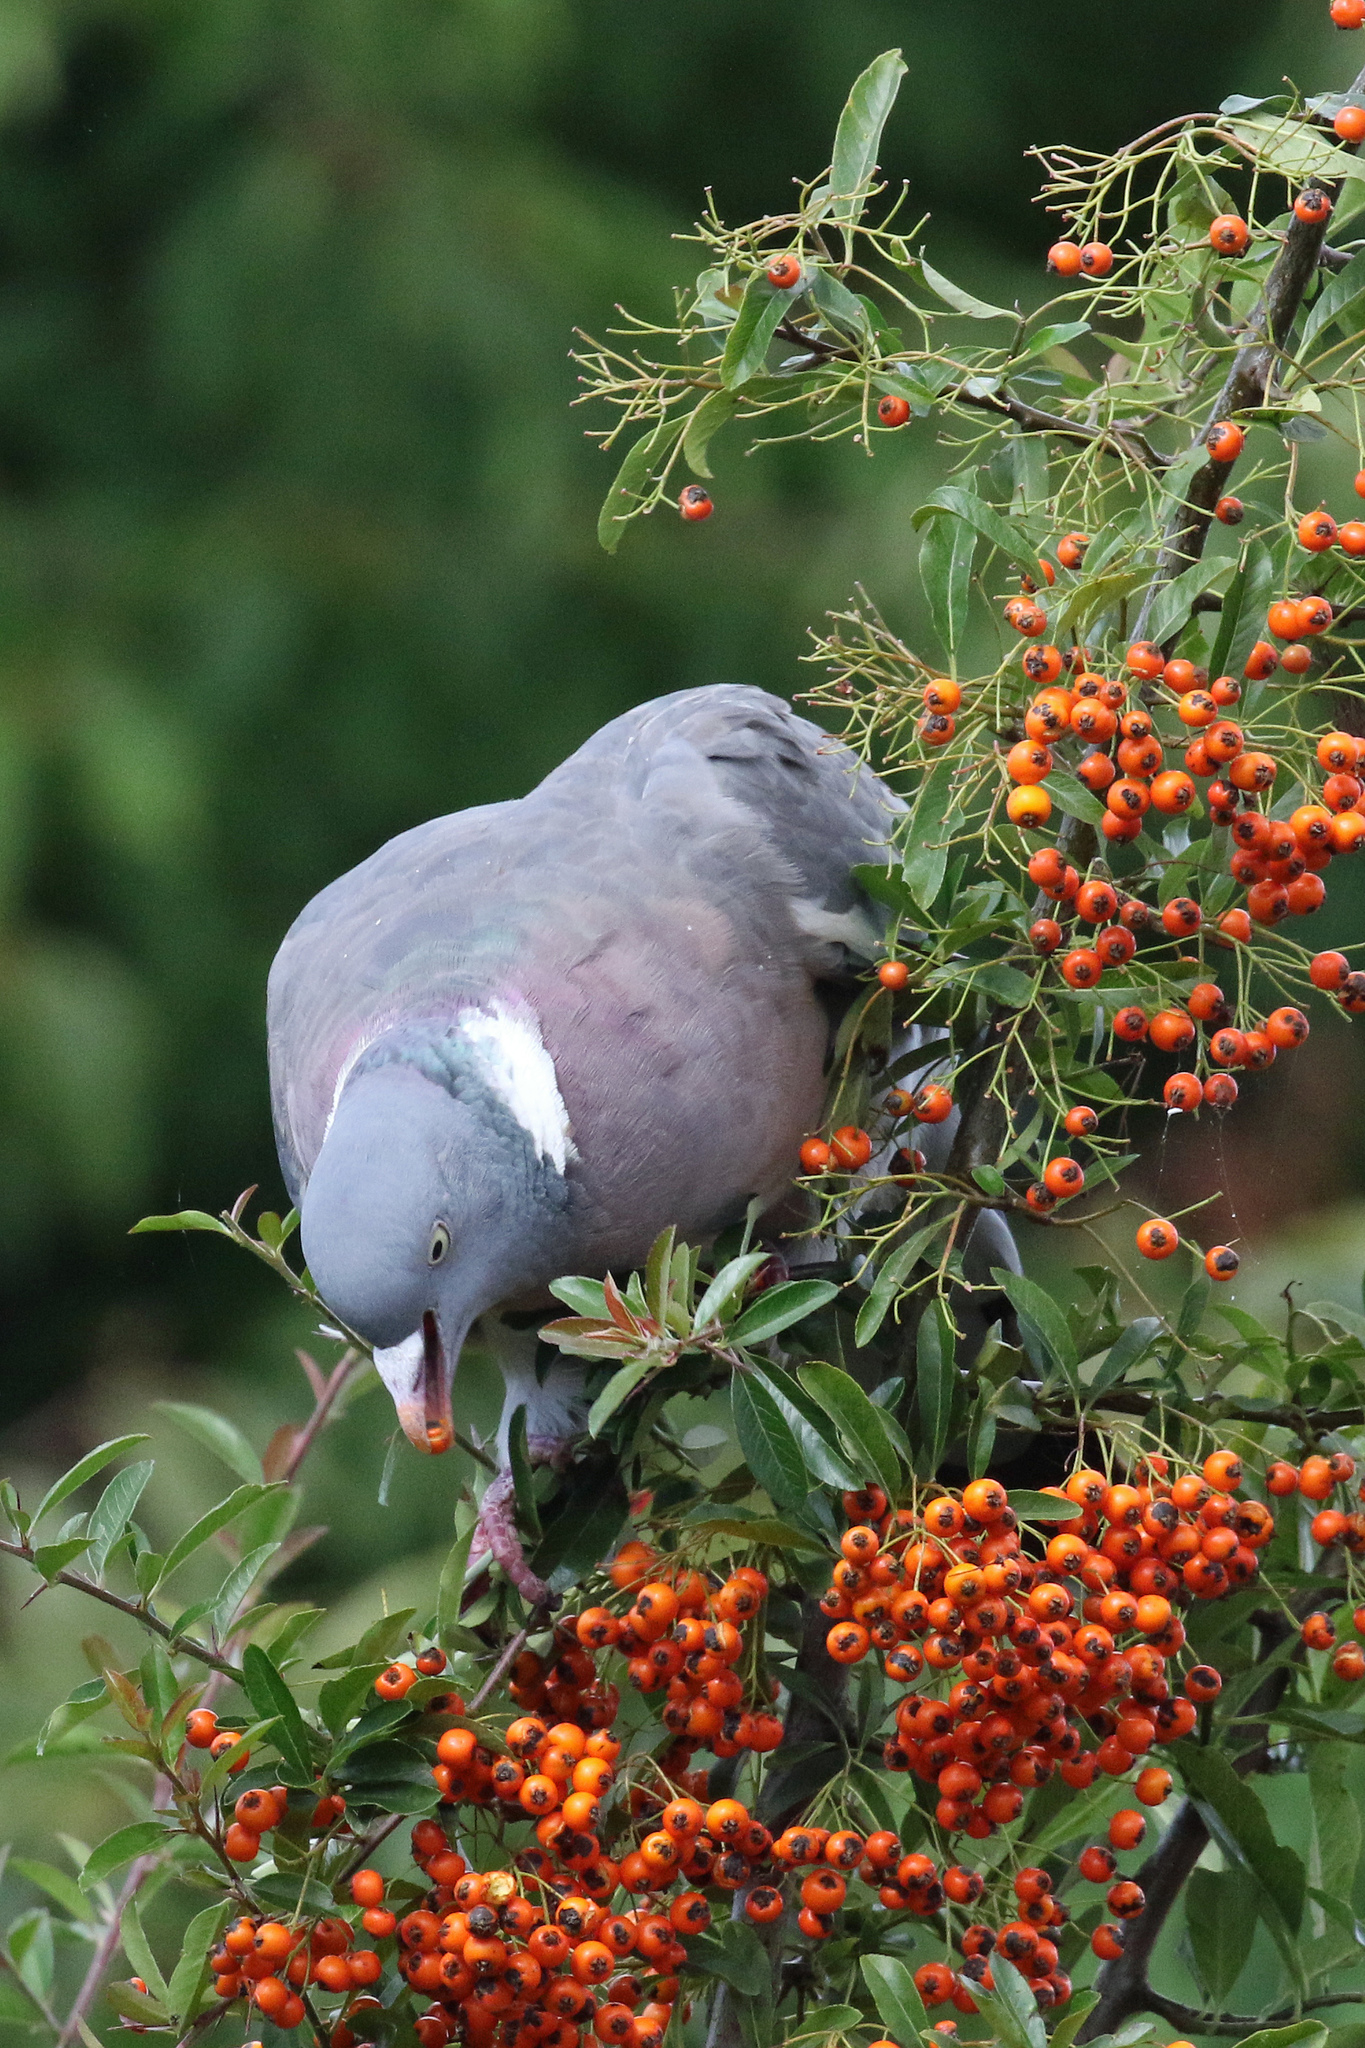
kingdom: Animalia
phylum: Chordata
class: Aves
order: Columbiformes
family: Columbidae
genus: Columba
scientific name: Columba palumbus
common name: Common wood pigeon
